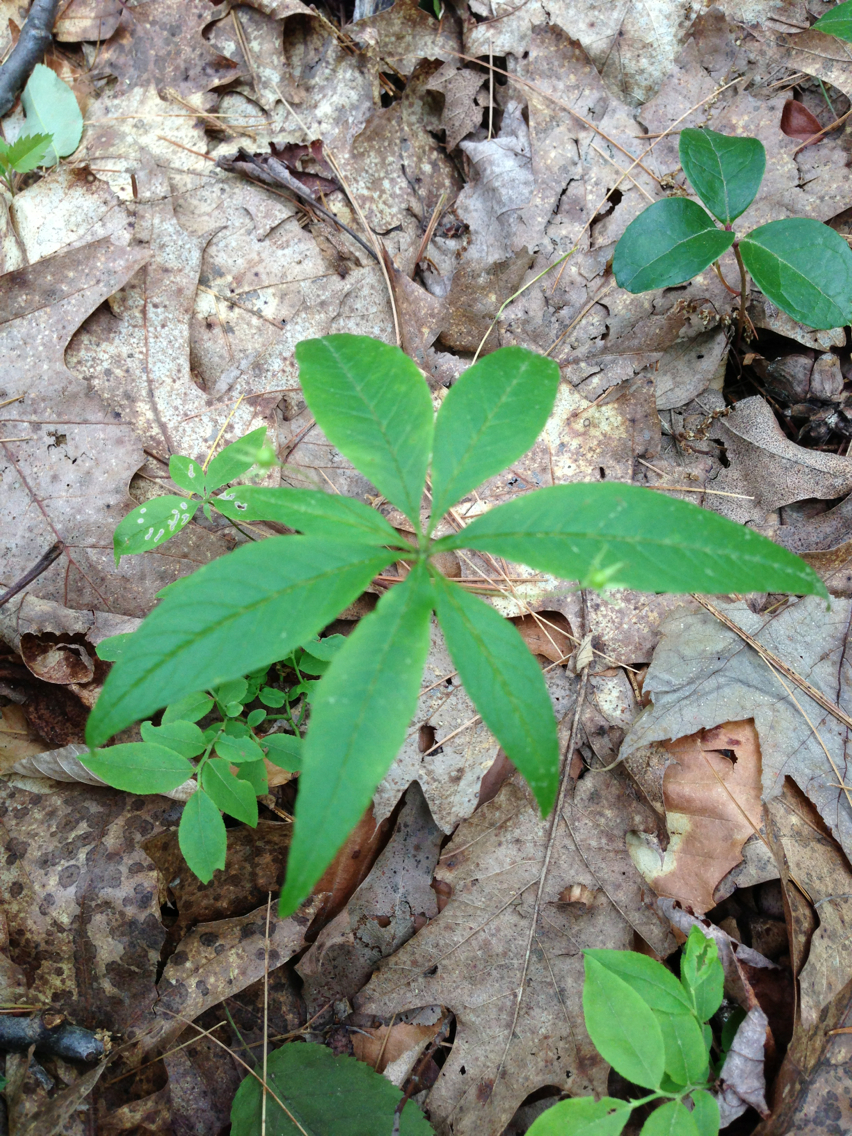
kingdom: Plantae
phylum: Tracheophyta
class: Magnoliopsida
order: Ericales
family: Primulaceae
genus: Lysimachia
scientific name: Lysimachia borealis
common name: American starflower
